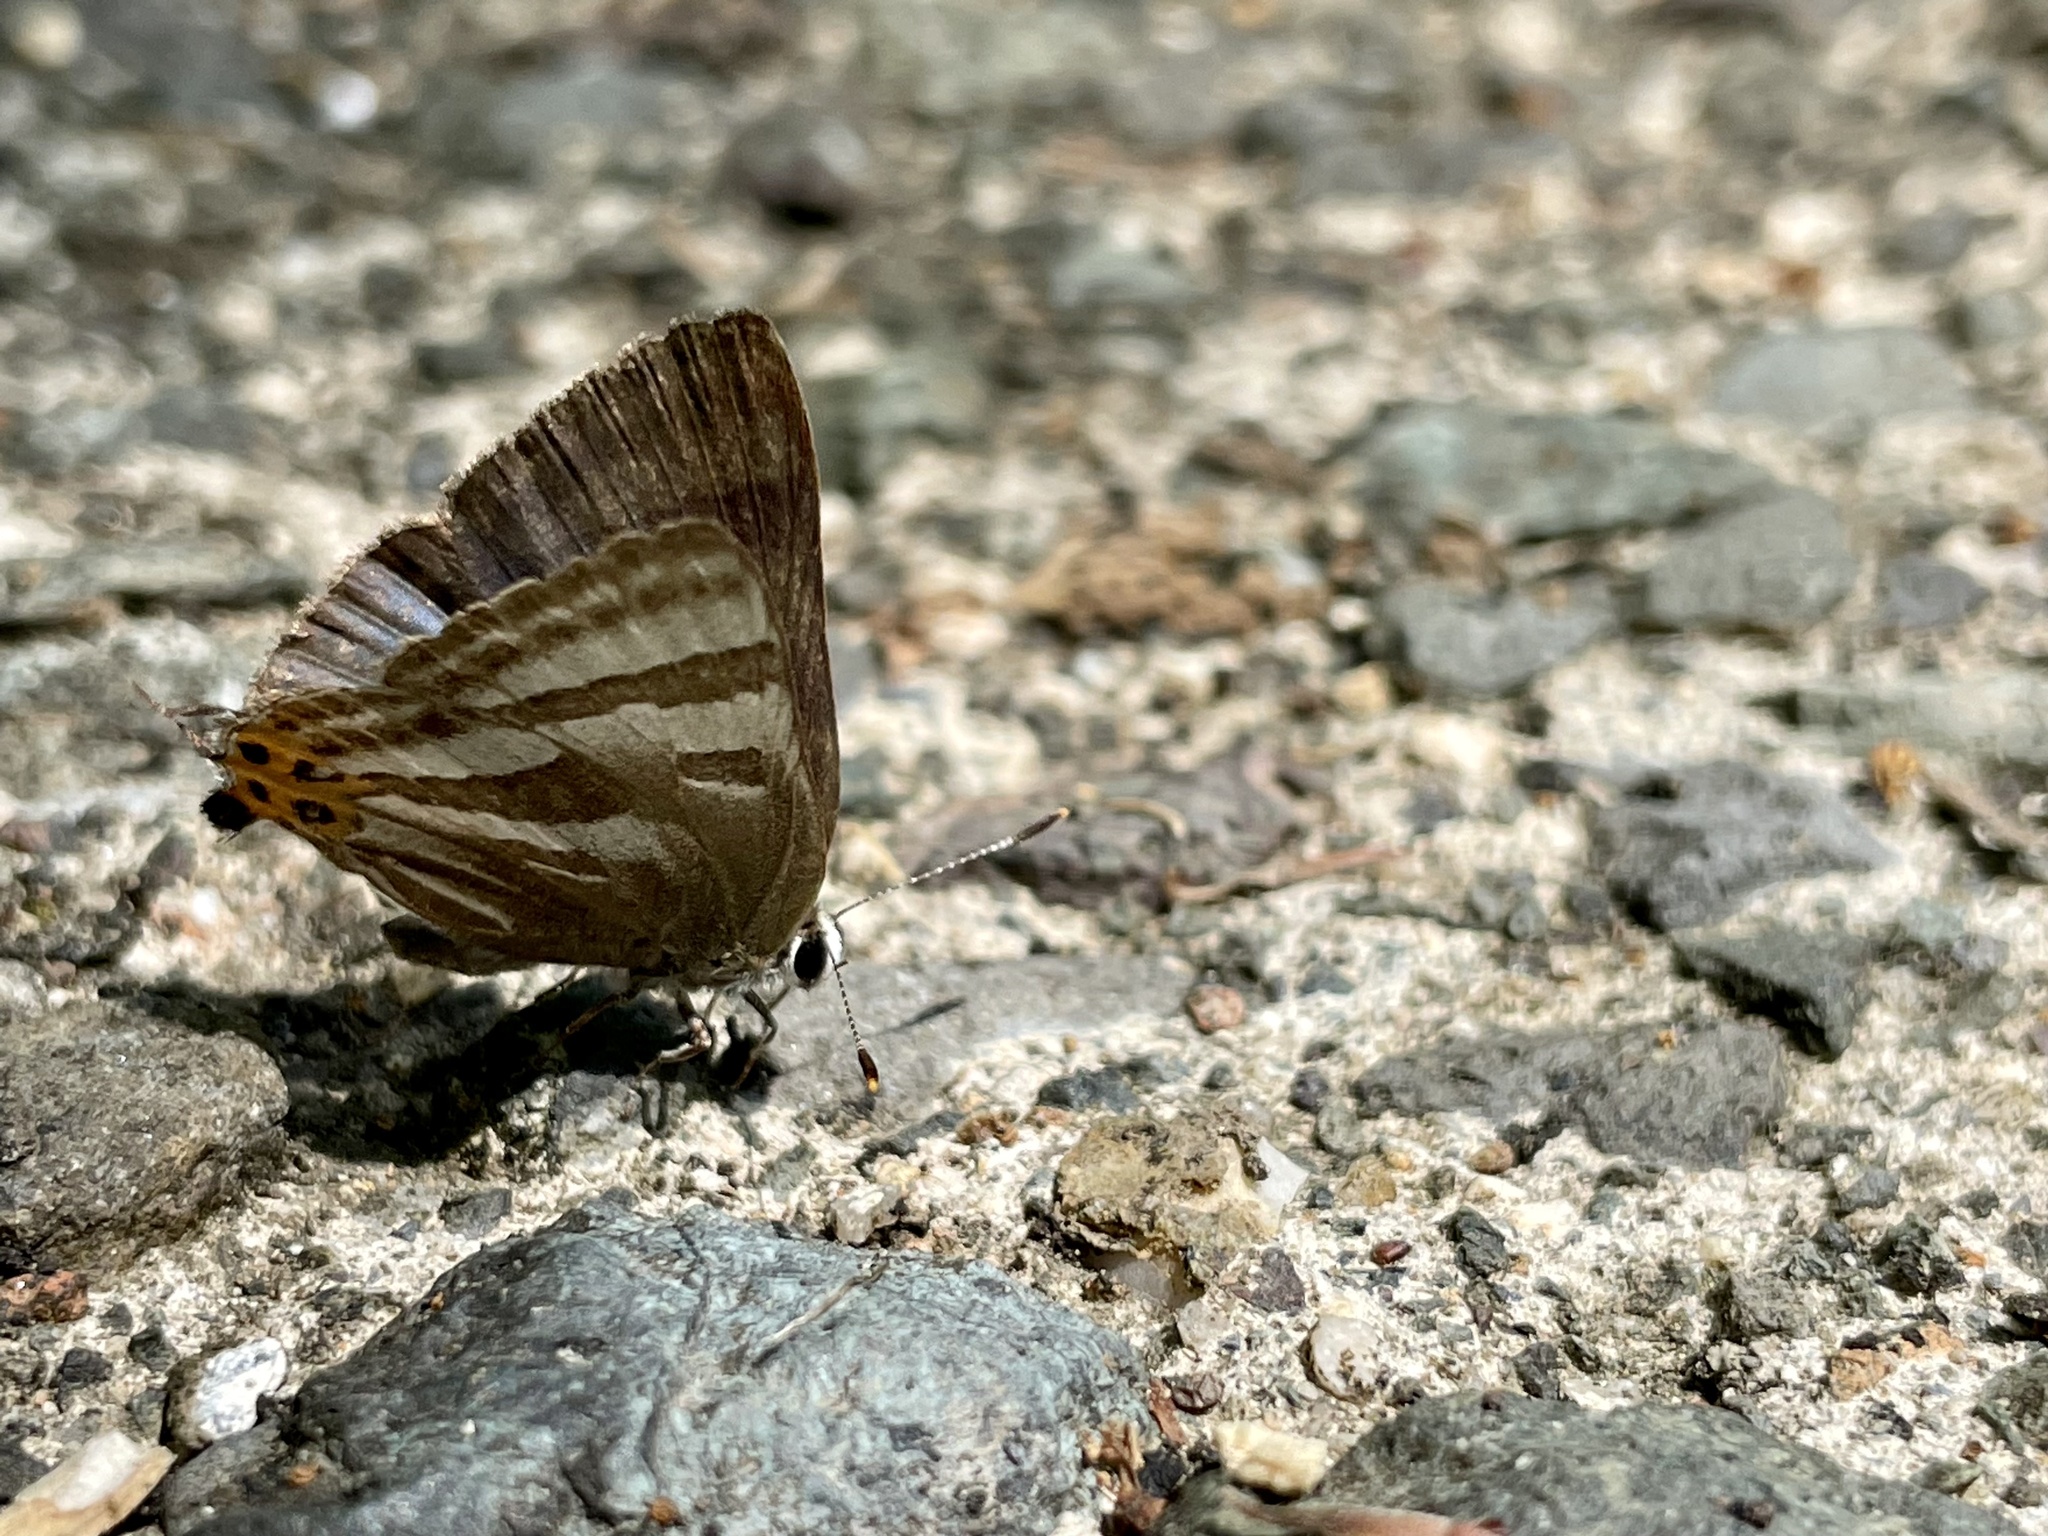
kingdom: Animalia
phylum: Arthropoda
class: Insecta
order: Lepidoptera
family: Lycaenidae
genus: Rapala
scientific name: Rapala arata
